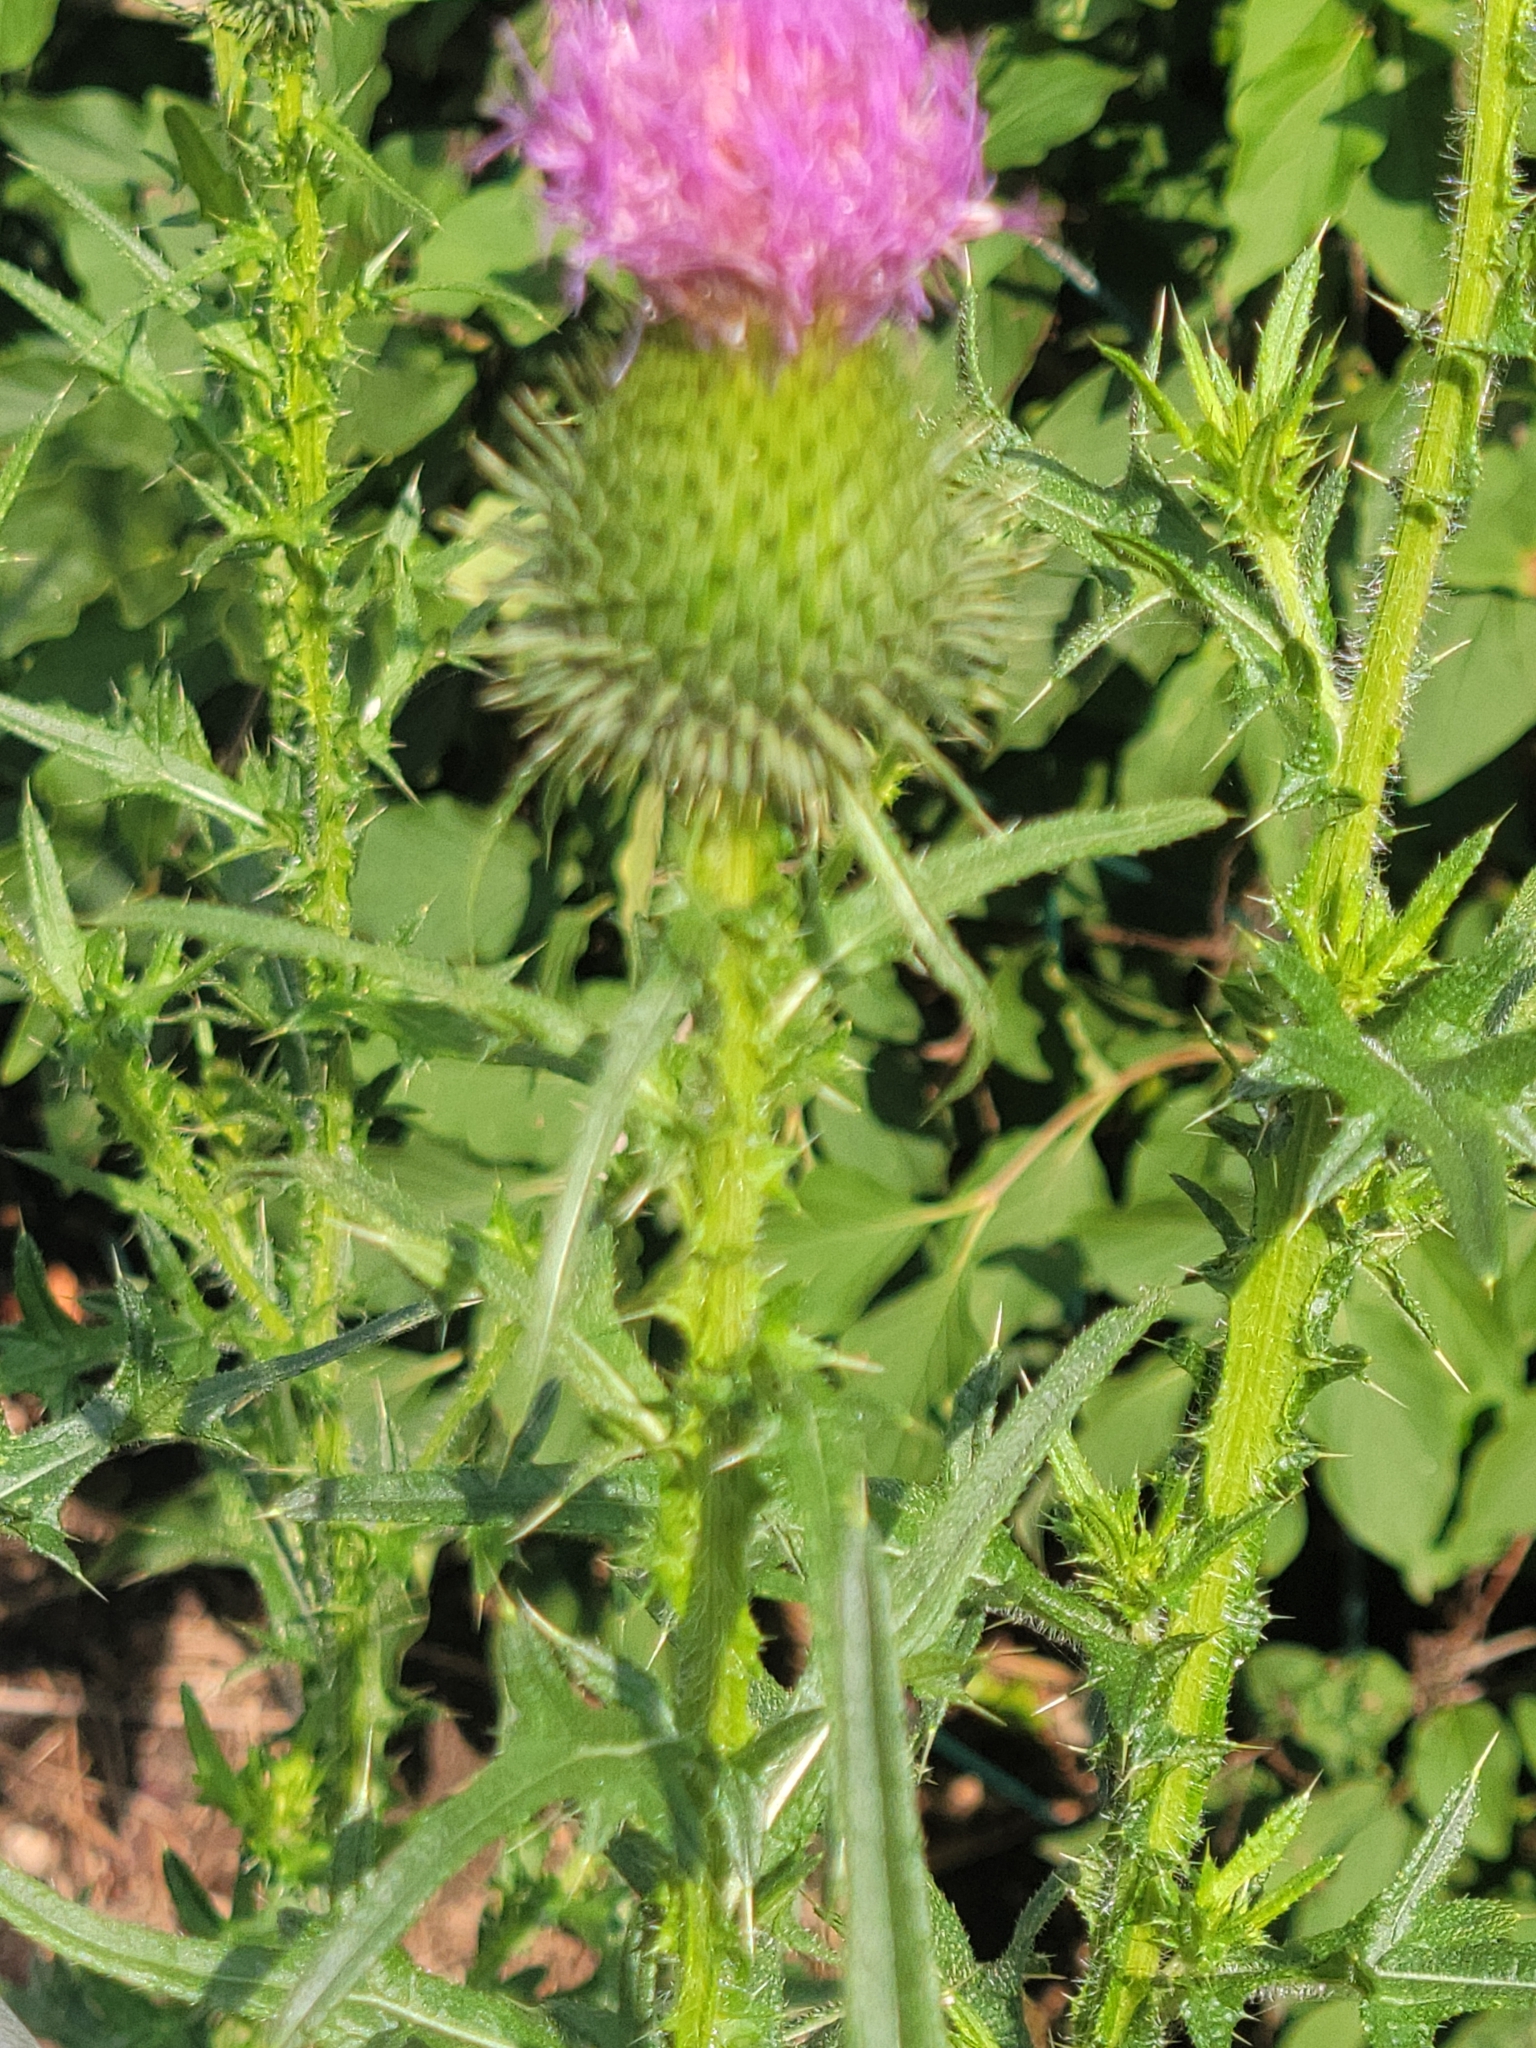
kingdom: Plantae
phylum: Tracheophyta
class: Magnoliopsida
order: Asterales
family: Asteraceae
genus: Cirsium
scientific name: Cirsium vulgare
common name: Bull thistle
